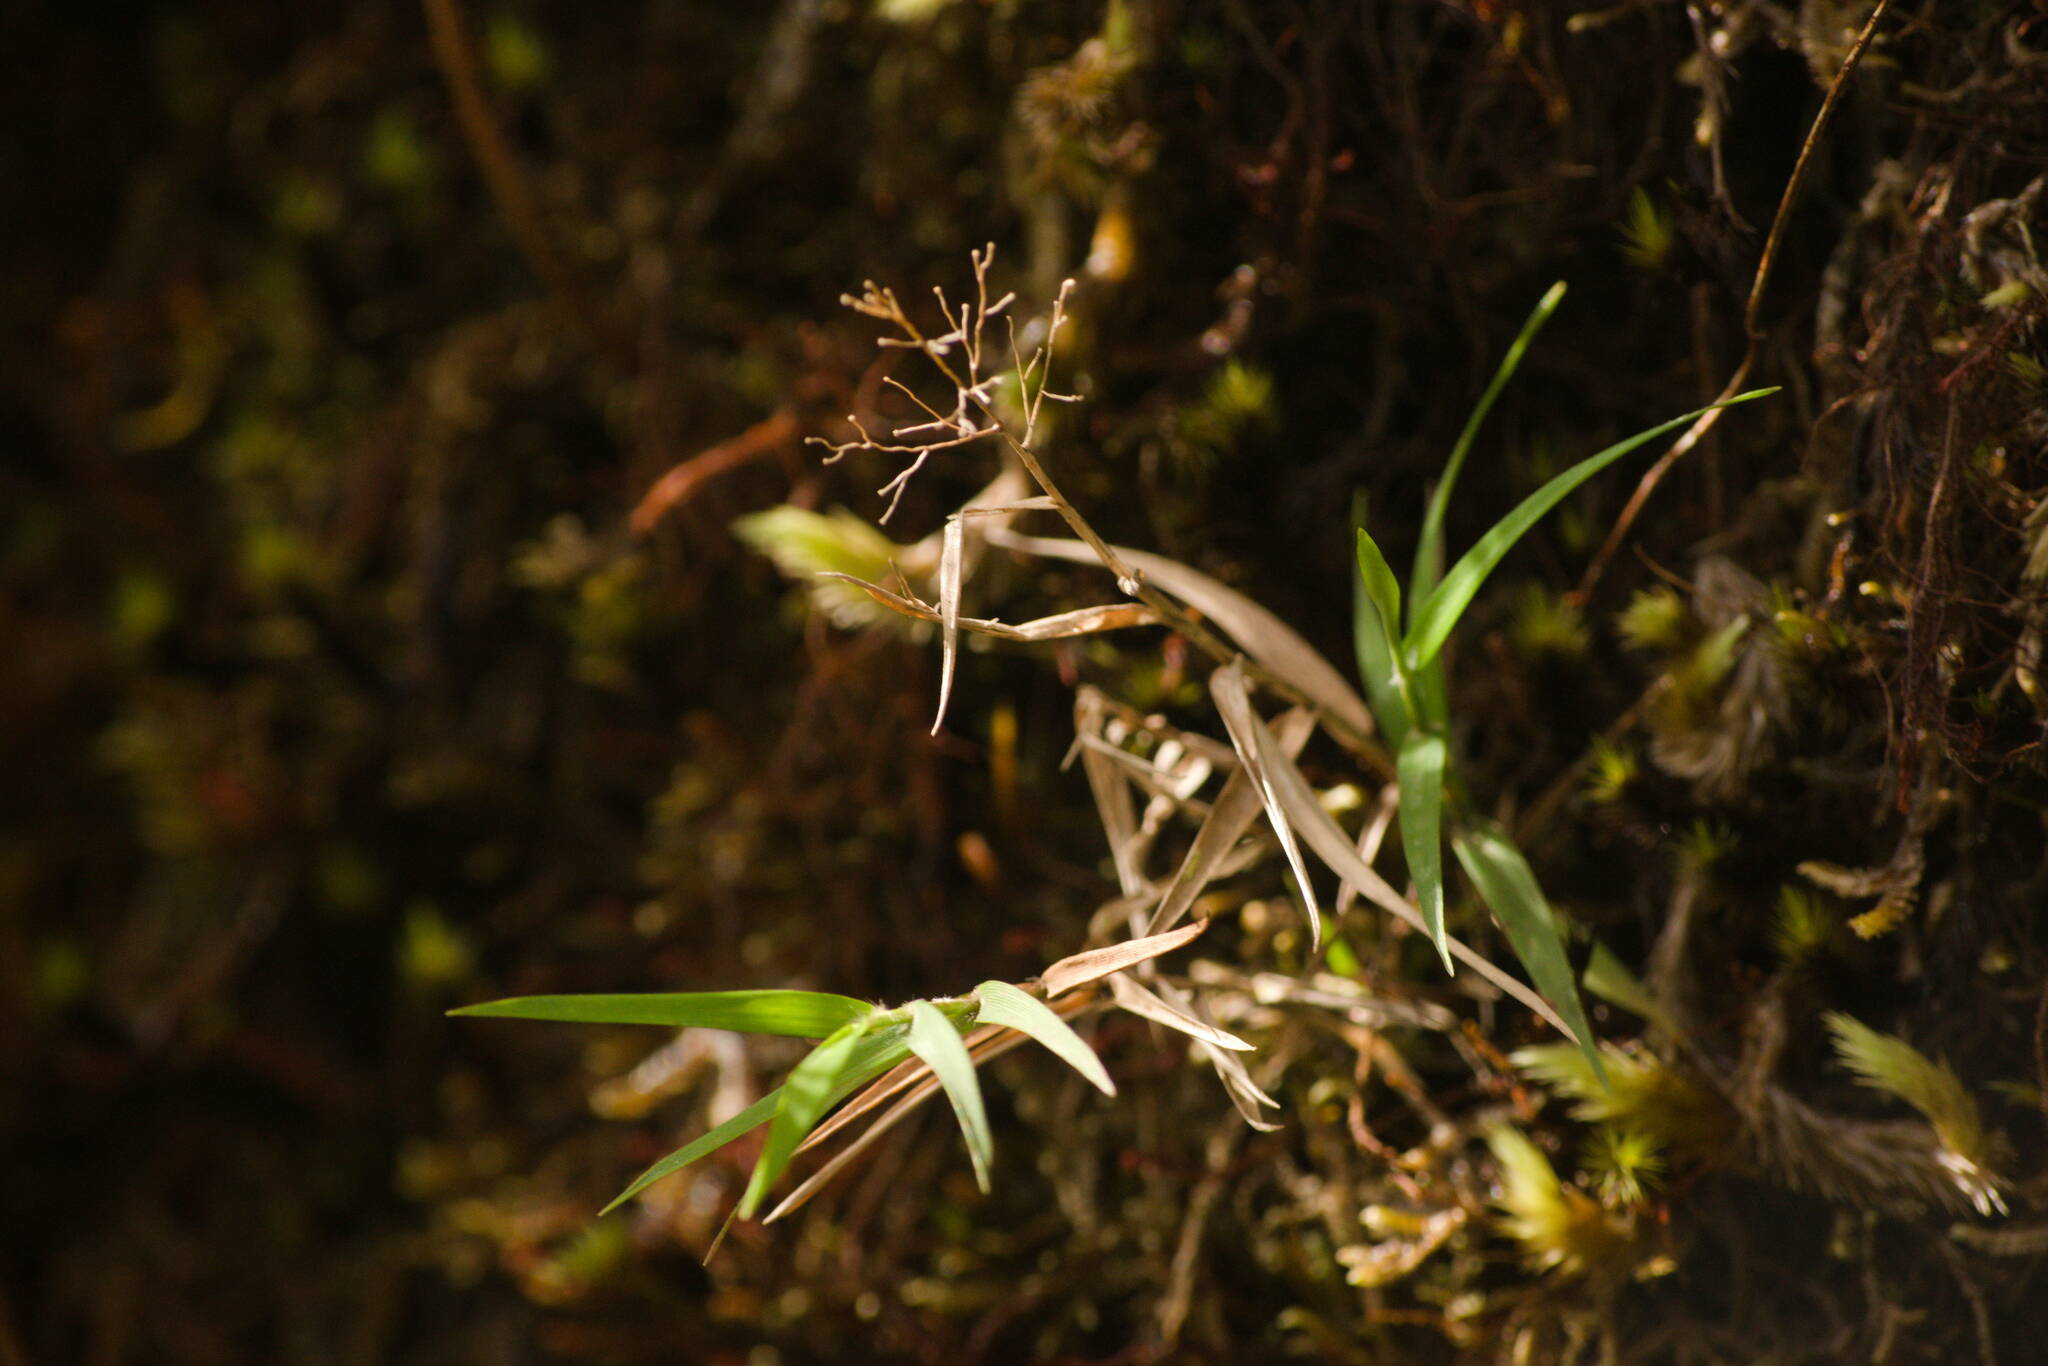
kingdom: Plantae
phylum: Tracheophyta
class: Liliopsida
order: Poales
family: Poaceae
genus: Isachne
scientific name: Isachne pallens
